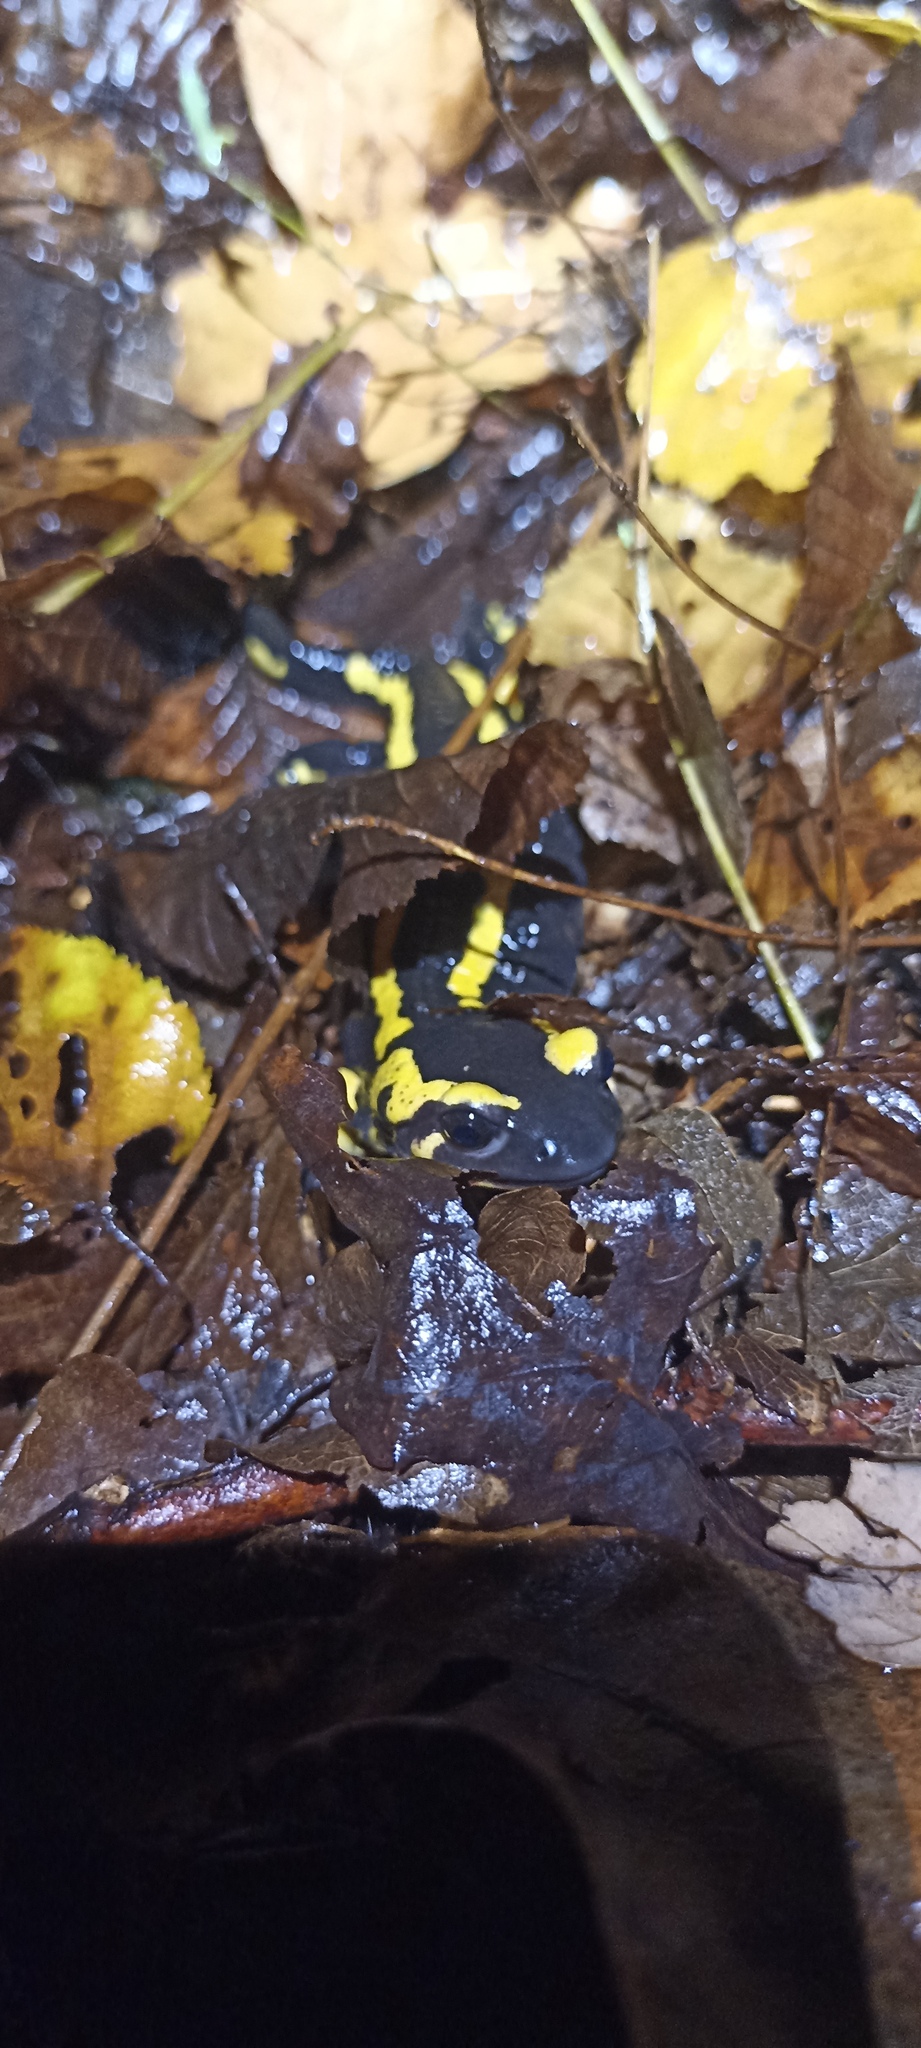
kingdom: Animalia
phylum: Chordata
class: Amphibia
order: Caudata
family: Salamandridae
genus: Salamandra
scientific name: Salamandra salamandra
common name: Fire salamander
